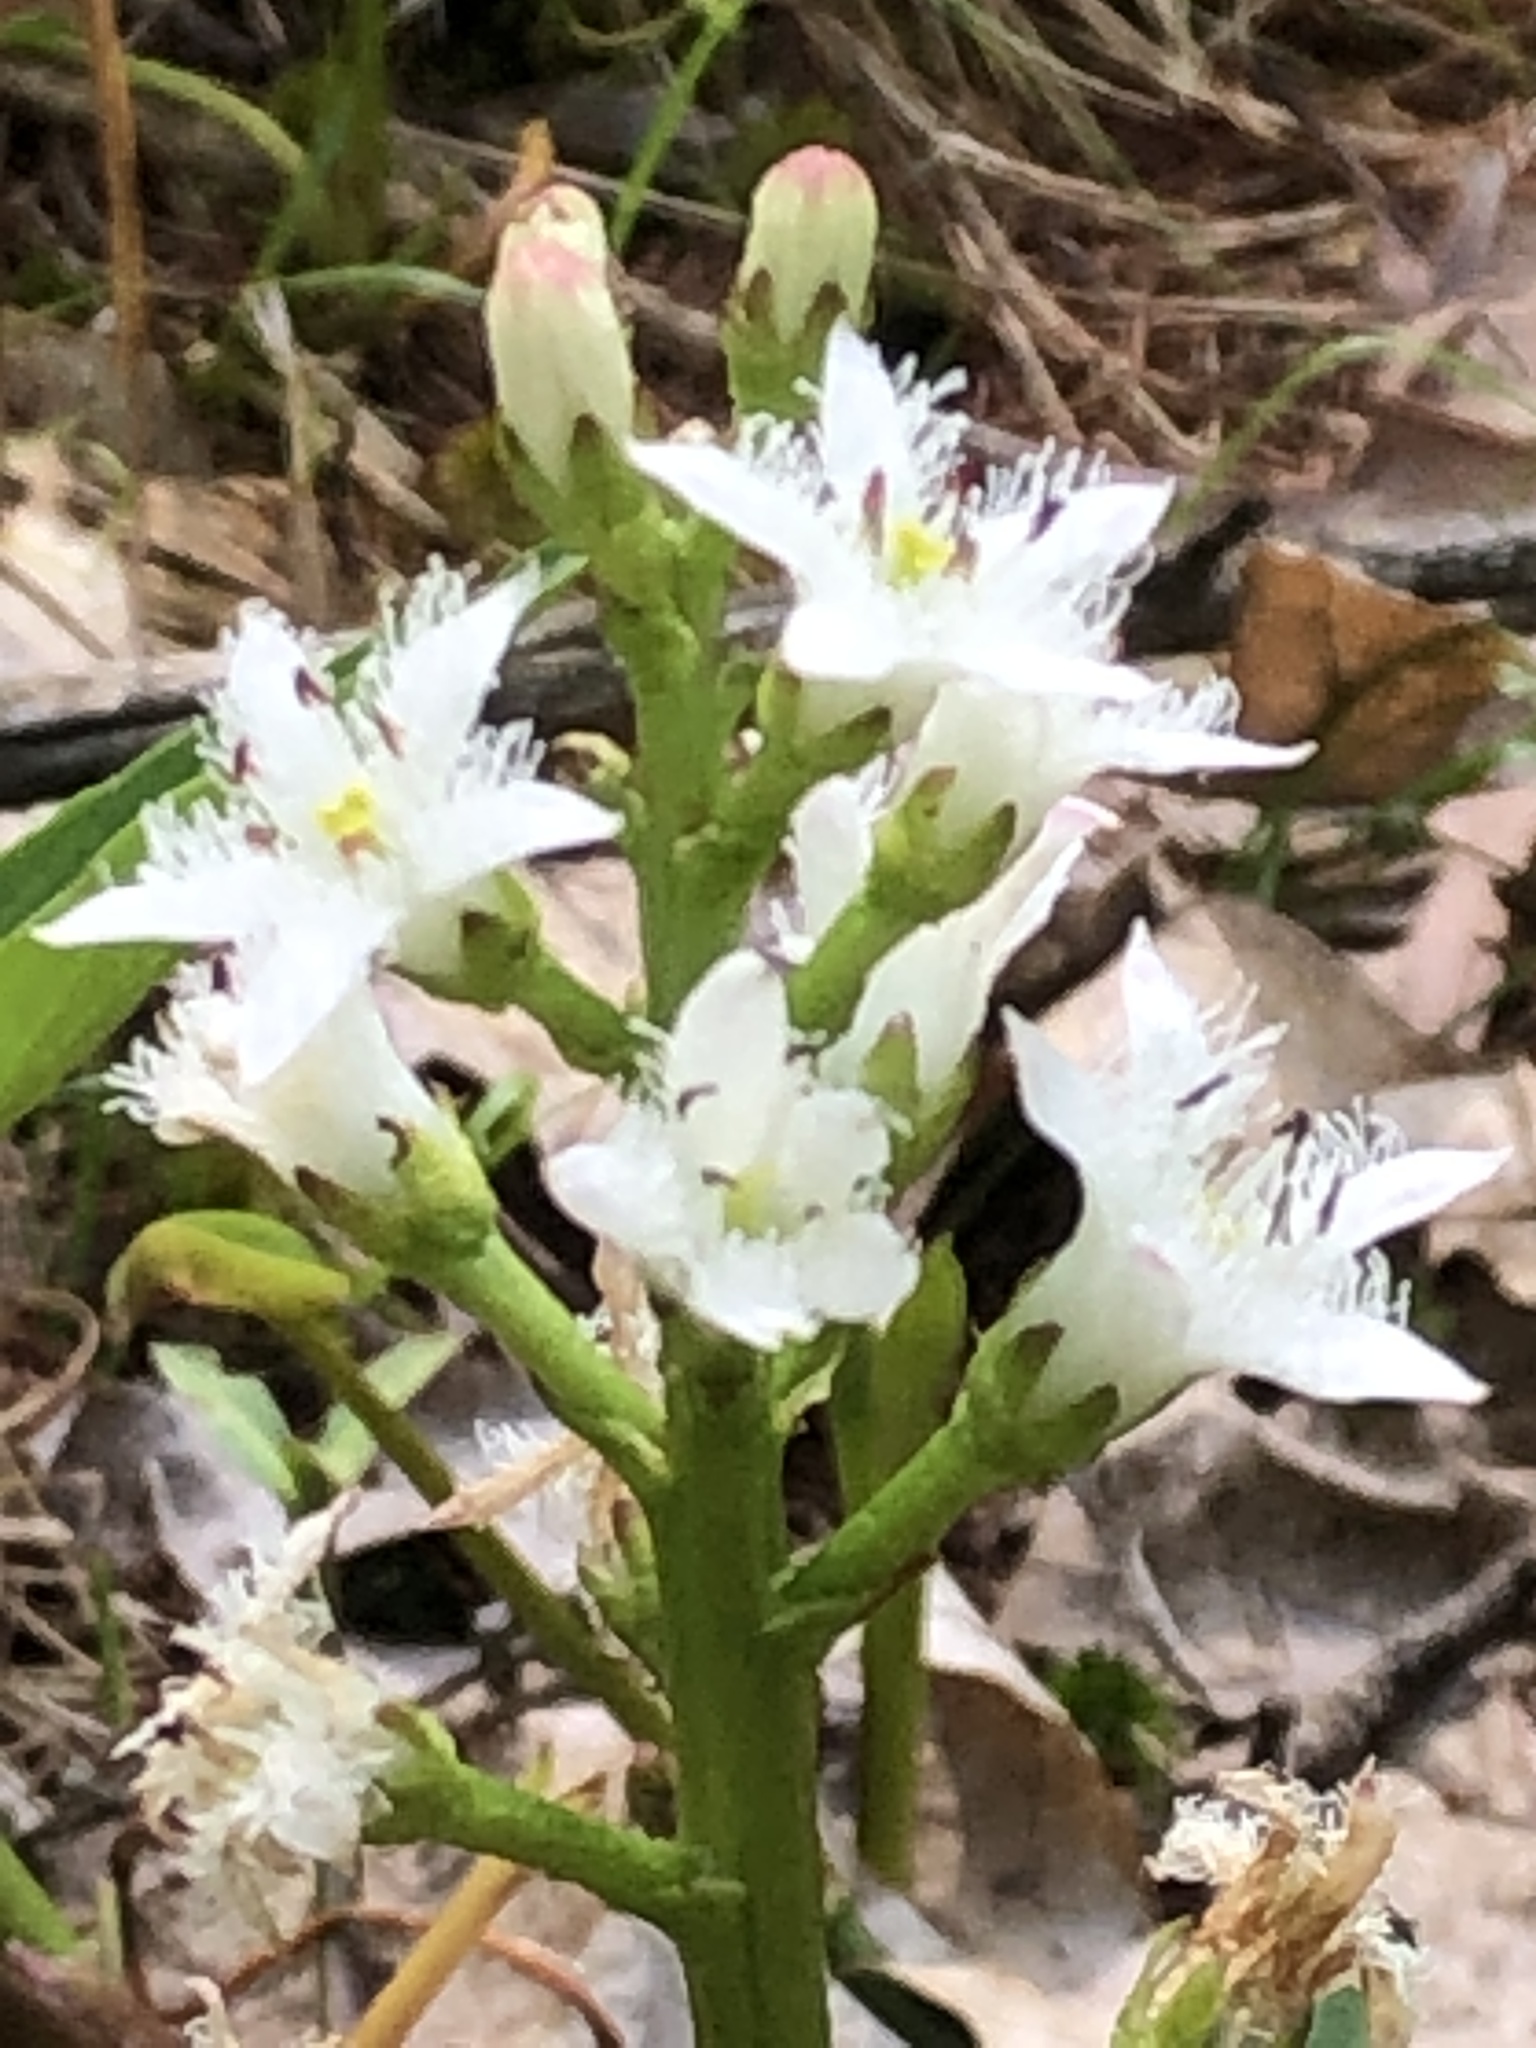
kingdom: Plantae
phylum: Tracheophyta
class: Magnoliopsida
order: Asterales
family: Menyanthaceae
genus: Menyanthes
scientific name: Menyanthes trifoliata
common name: Bogbean
